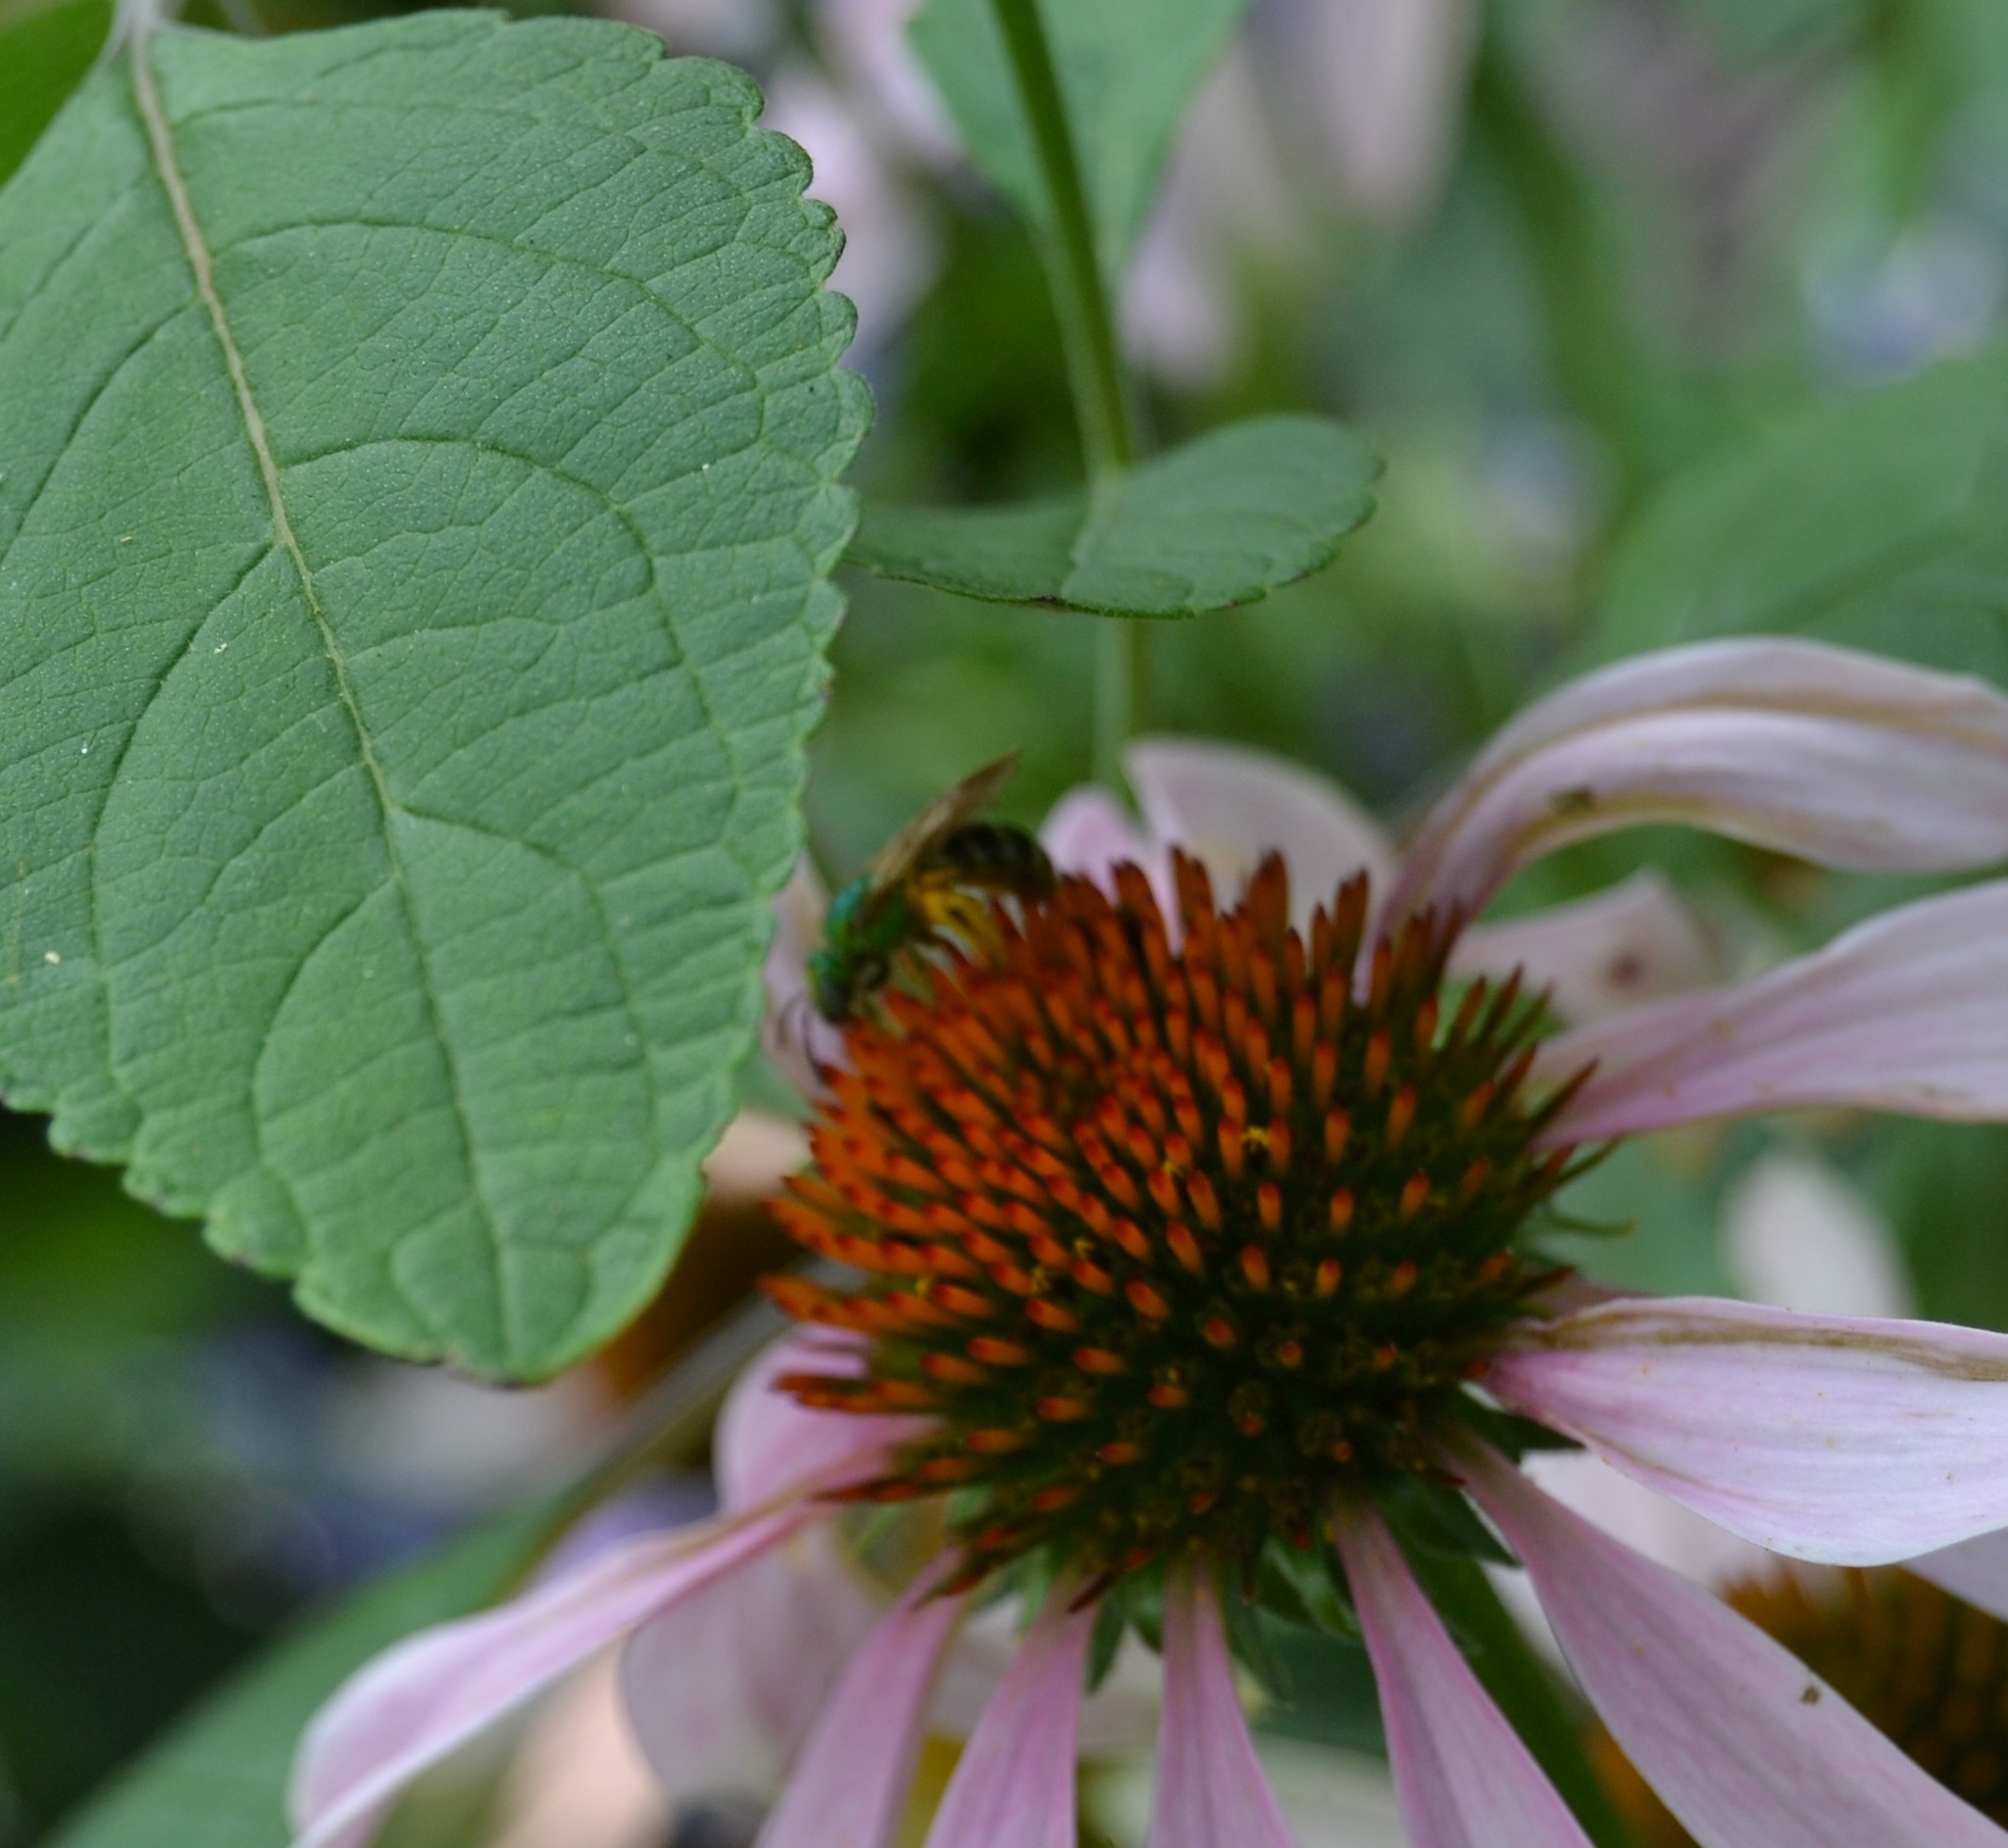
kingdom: Animalia
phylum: Arthropoda
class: Insecta
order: Hymenoptera
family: Halictidae
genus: Agapostemon
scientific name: Agapostemon virescens
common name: Bicolored striped sweat bee
